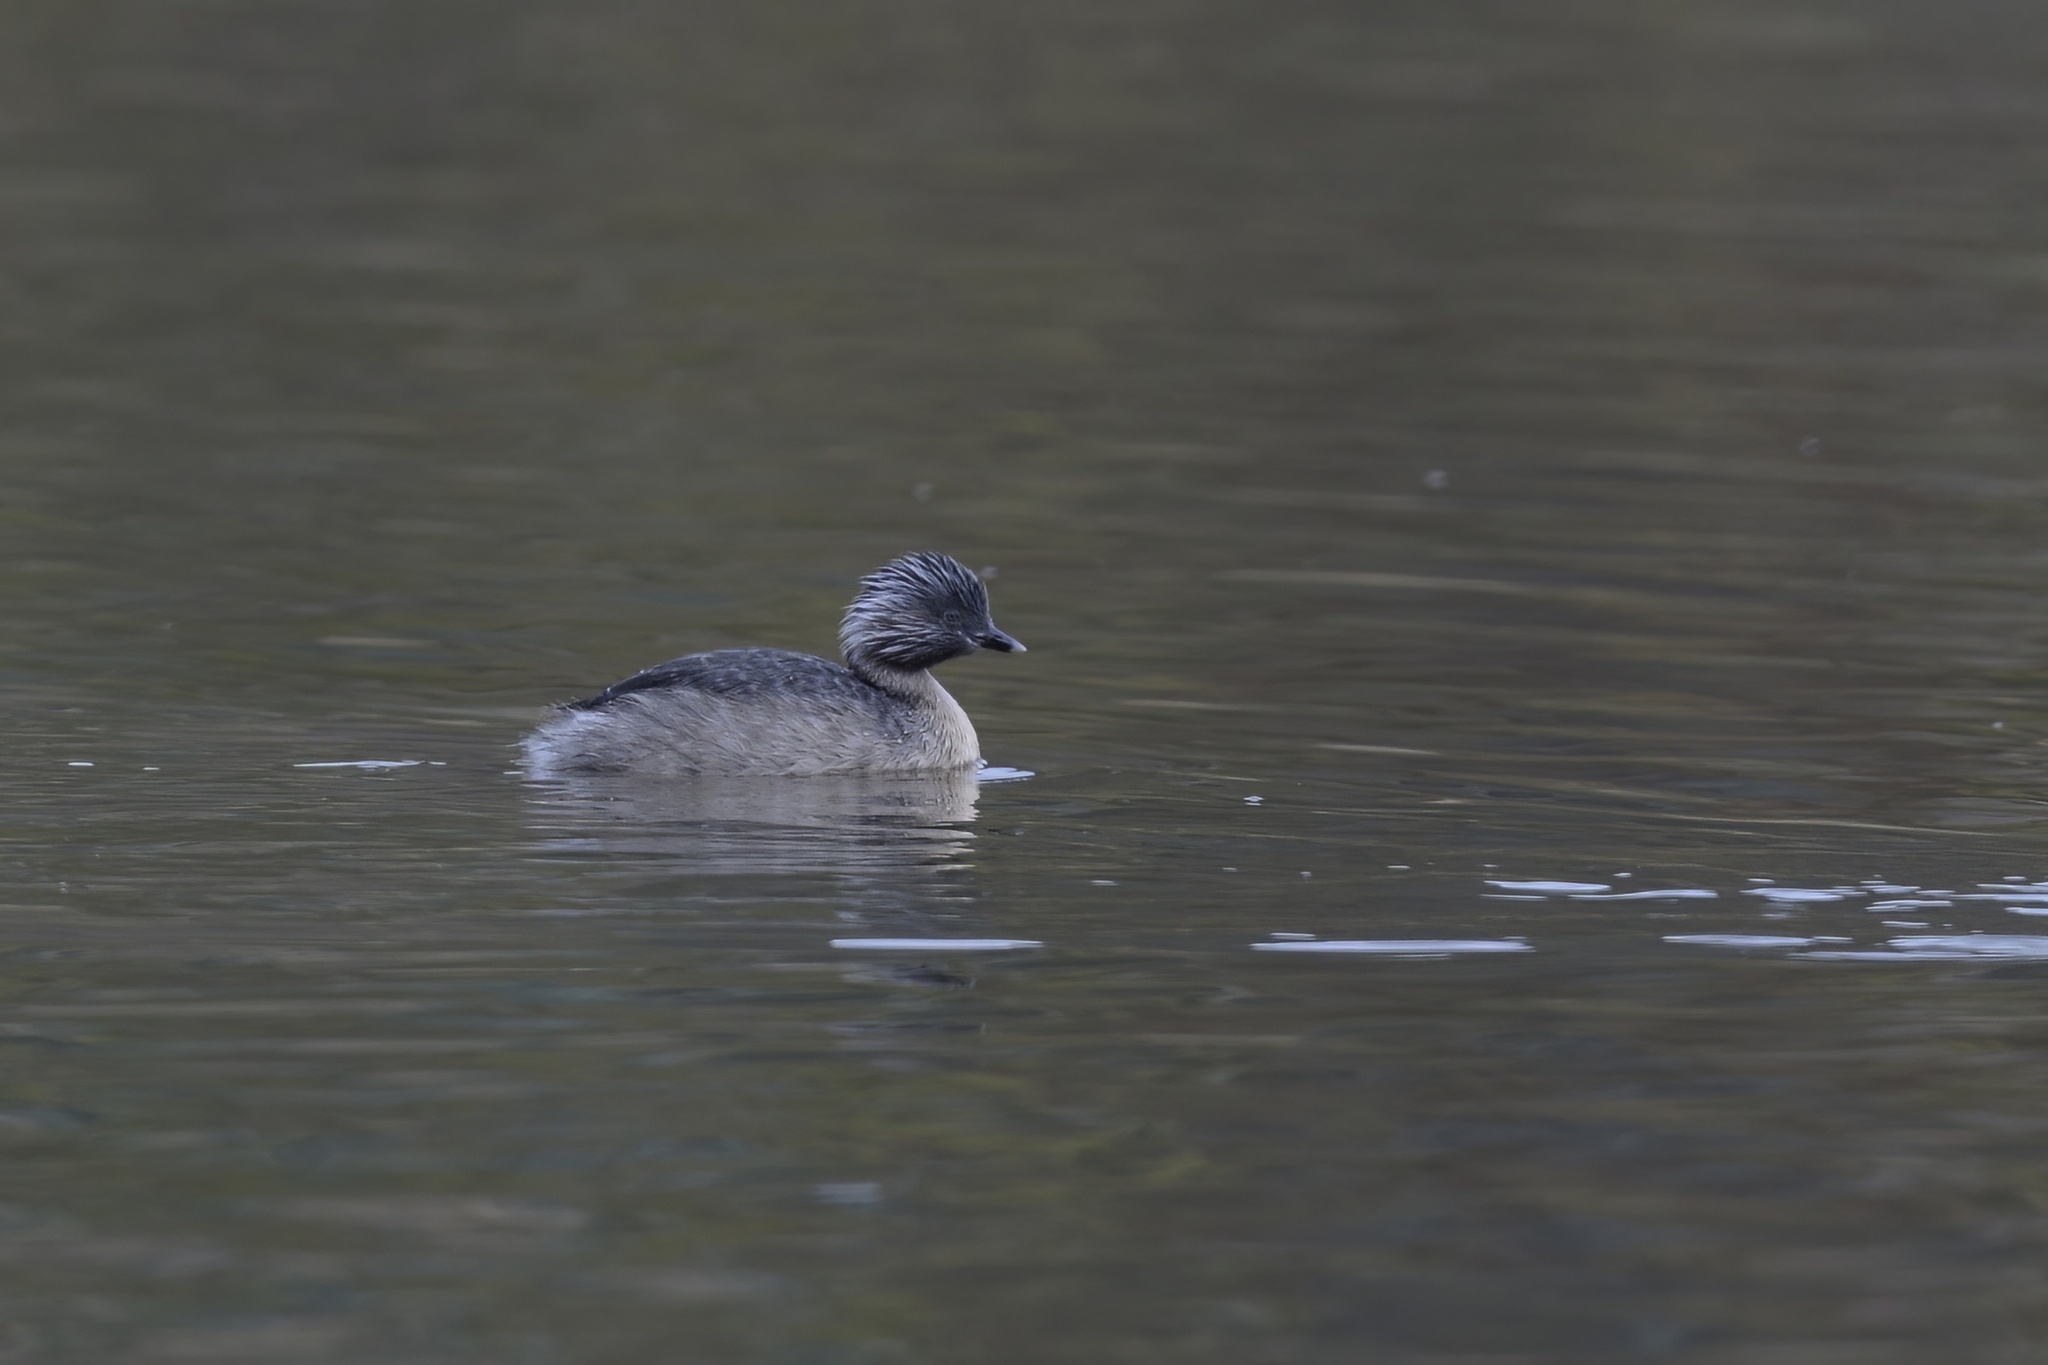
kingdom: Animalia
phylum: Chordata
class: Aves
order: Podicipediformes
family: Podicipedidae
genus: Poliocephalus
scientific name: Poliocephalus poliocephalus
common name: Hoary-headed grebe
